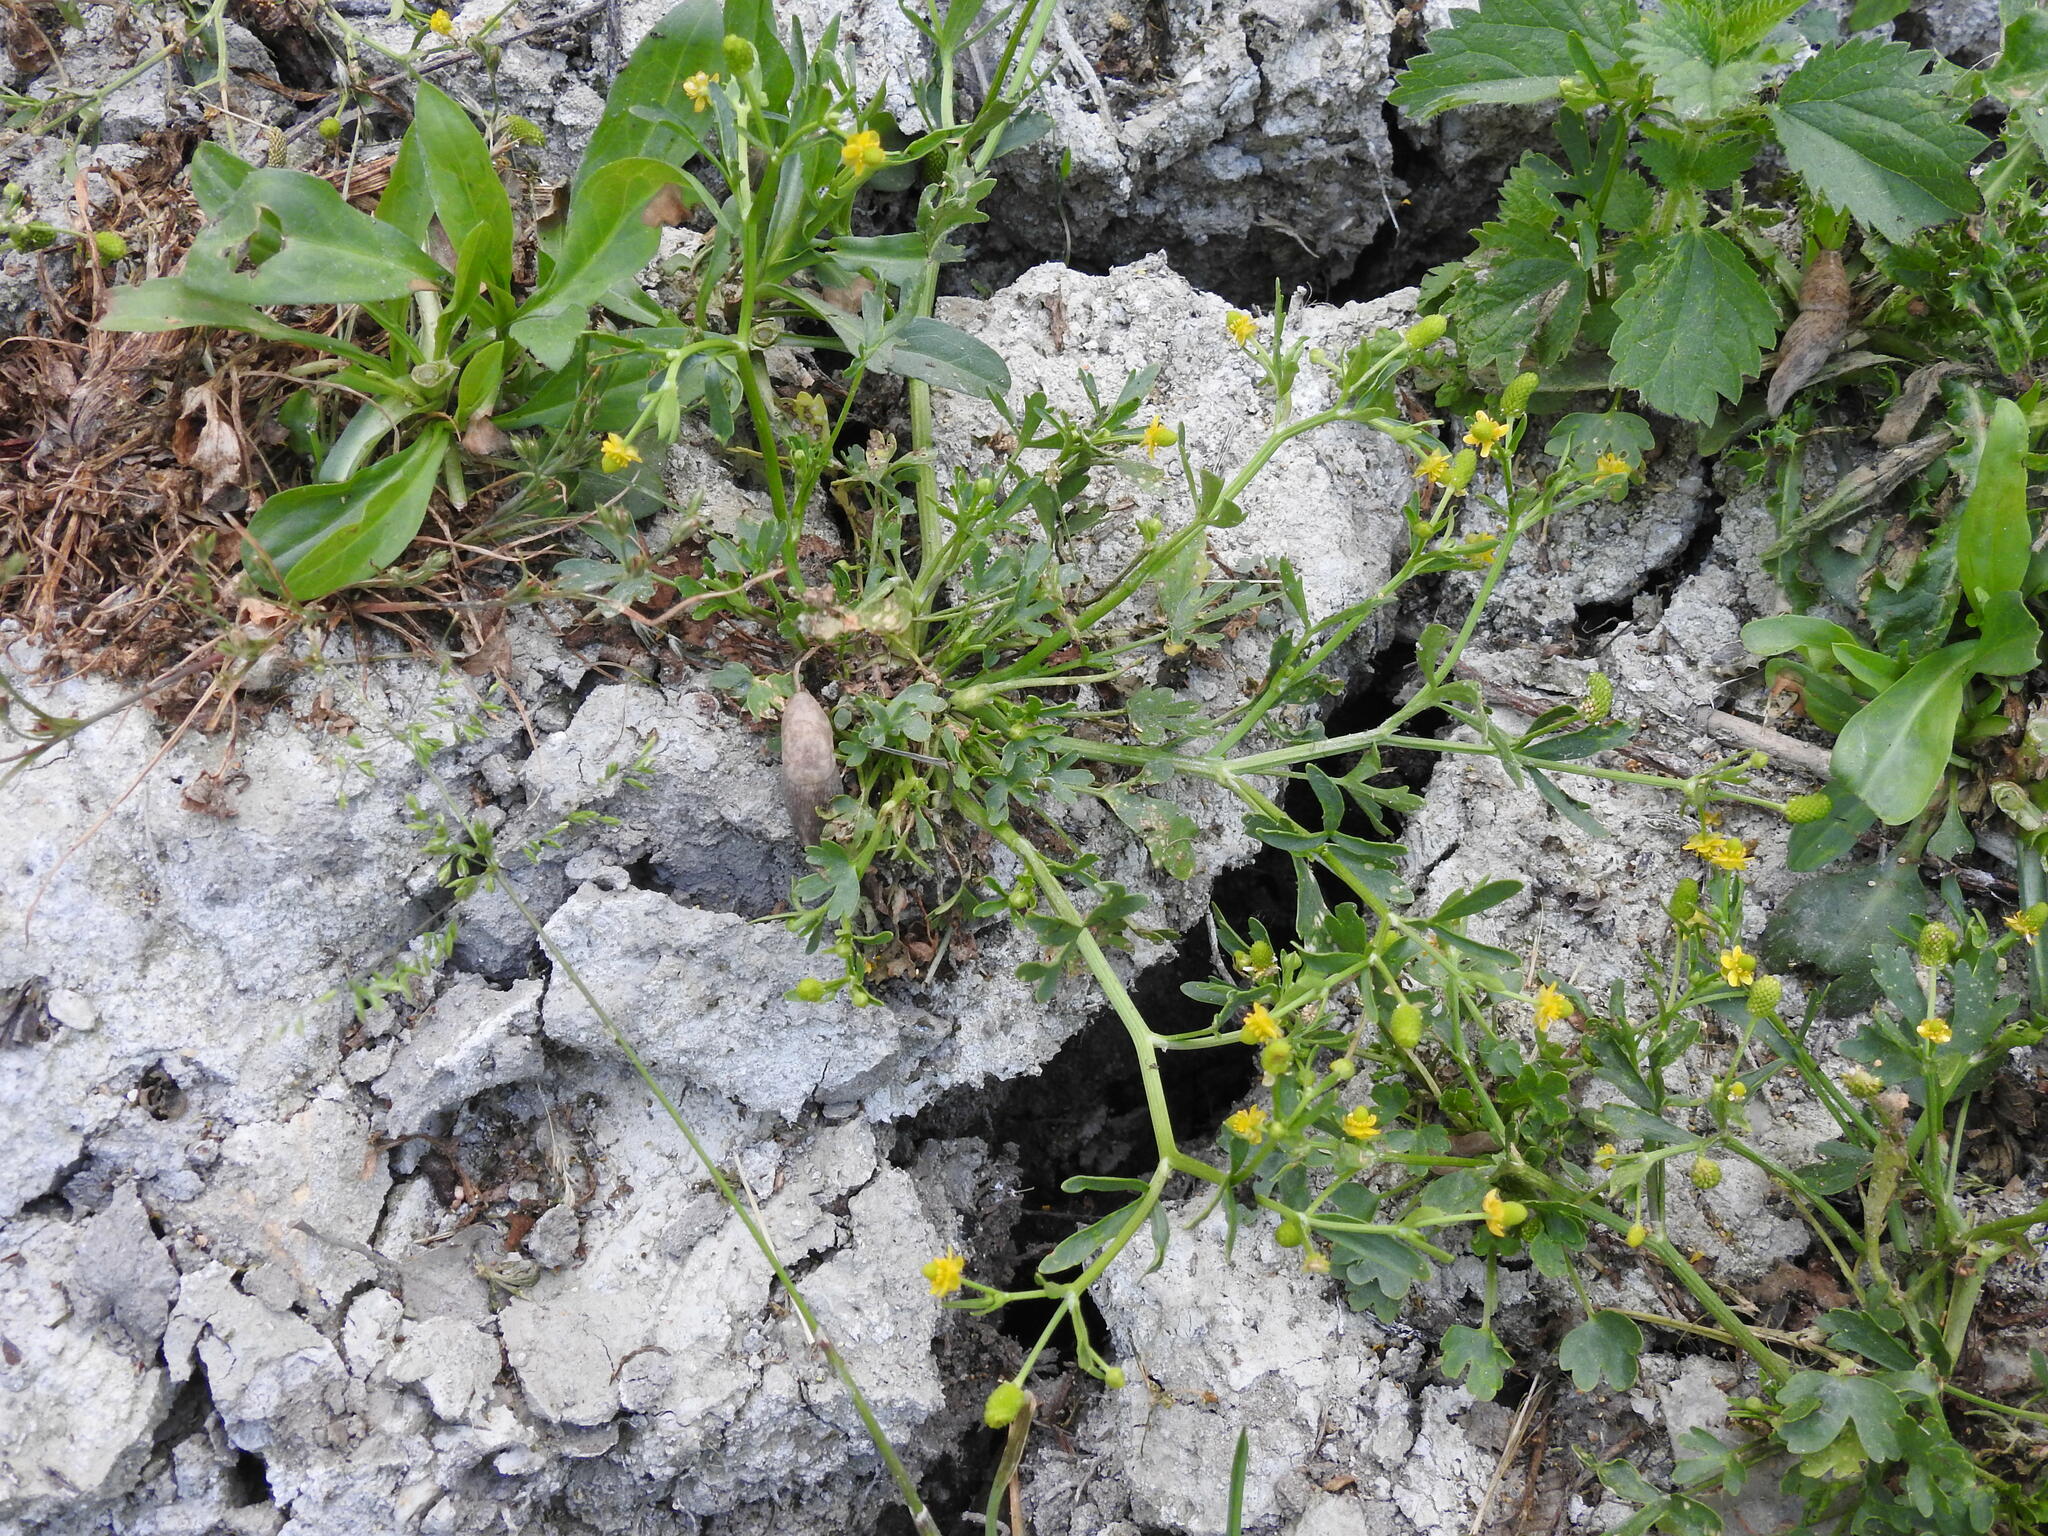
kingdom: Plantae
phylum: Tracheophyta
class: Magnoliopsida
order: Ranunculales
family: Ranunculaceae
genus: Ranunculus
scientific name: Ranunculus sceleratus
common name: Celery-leaved buttercup
